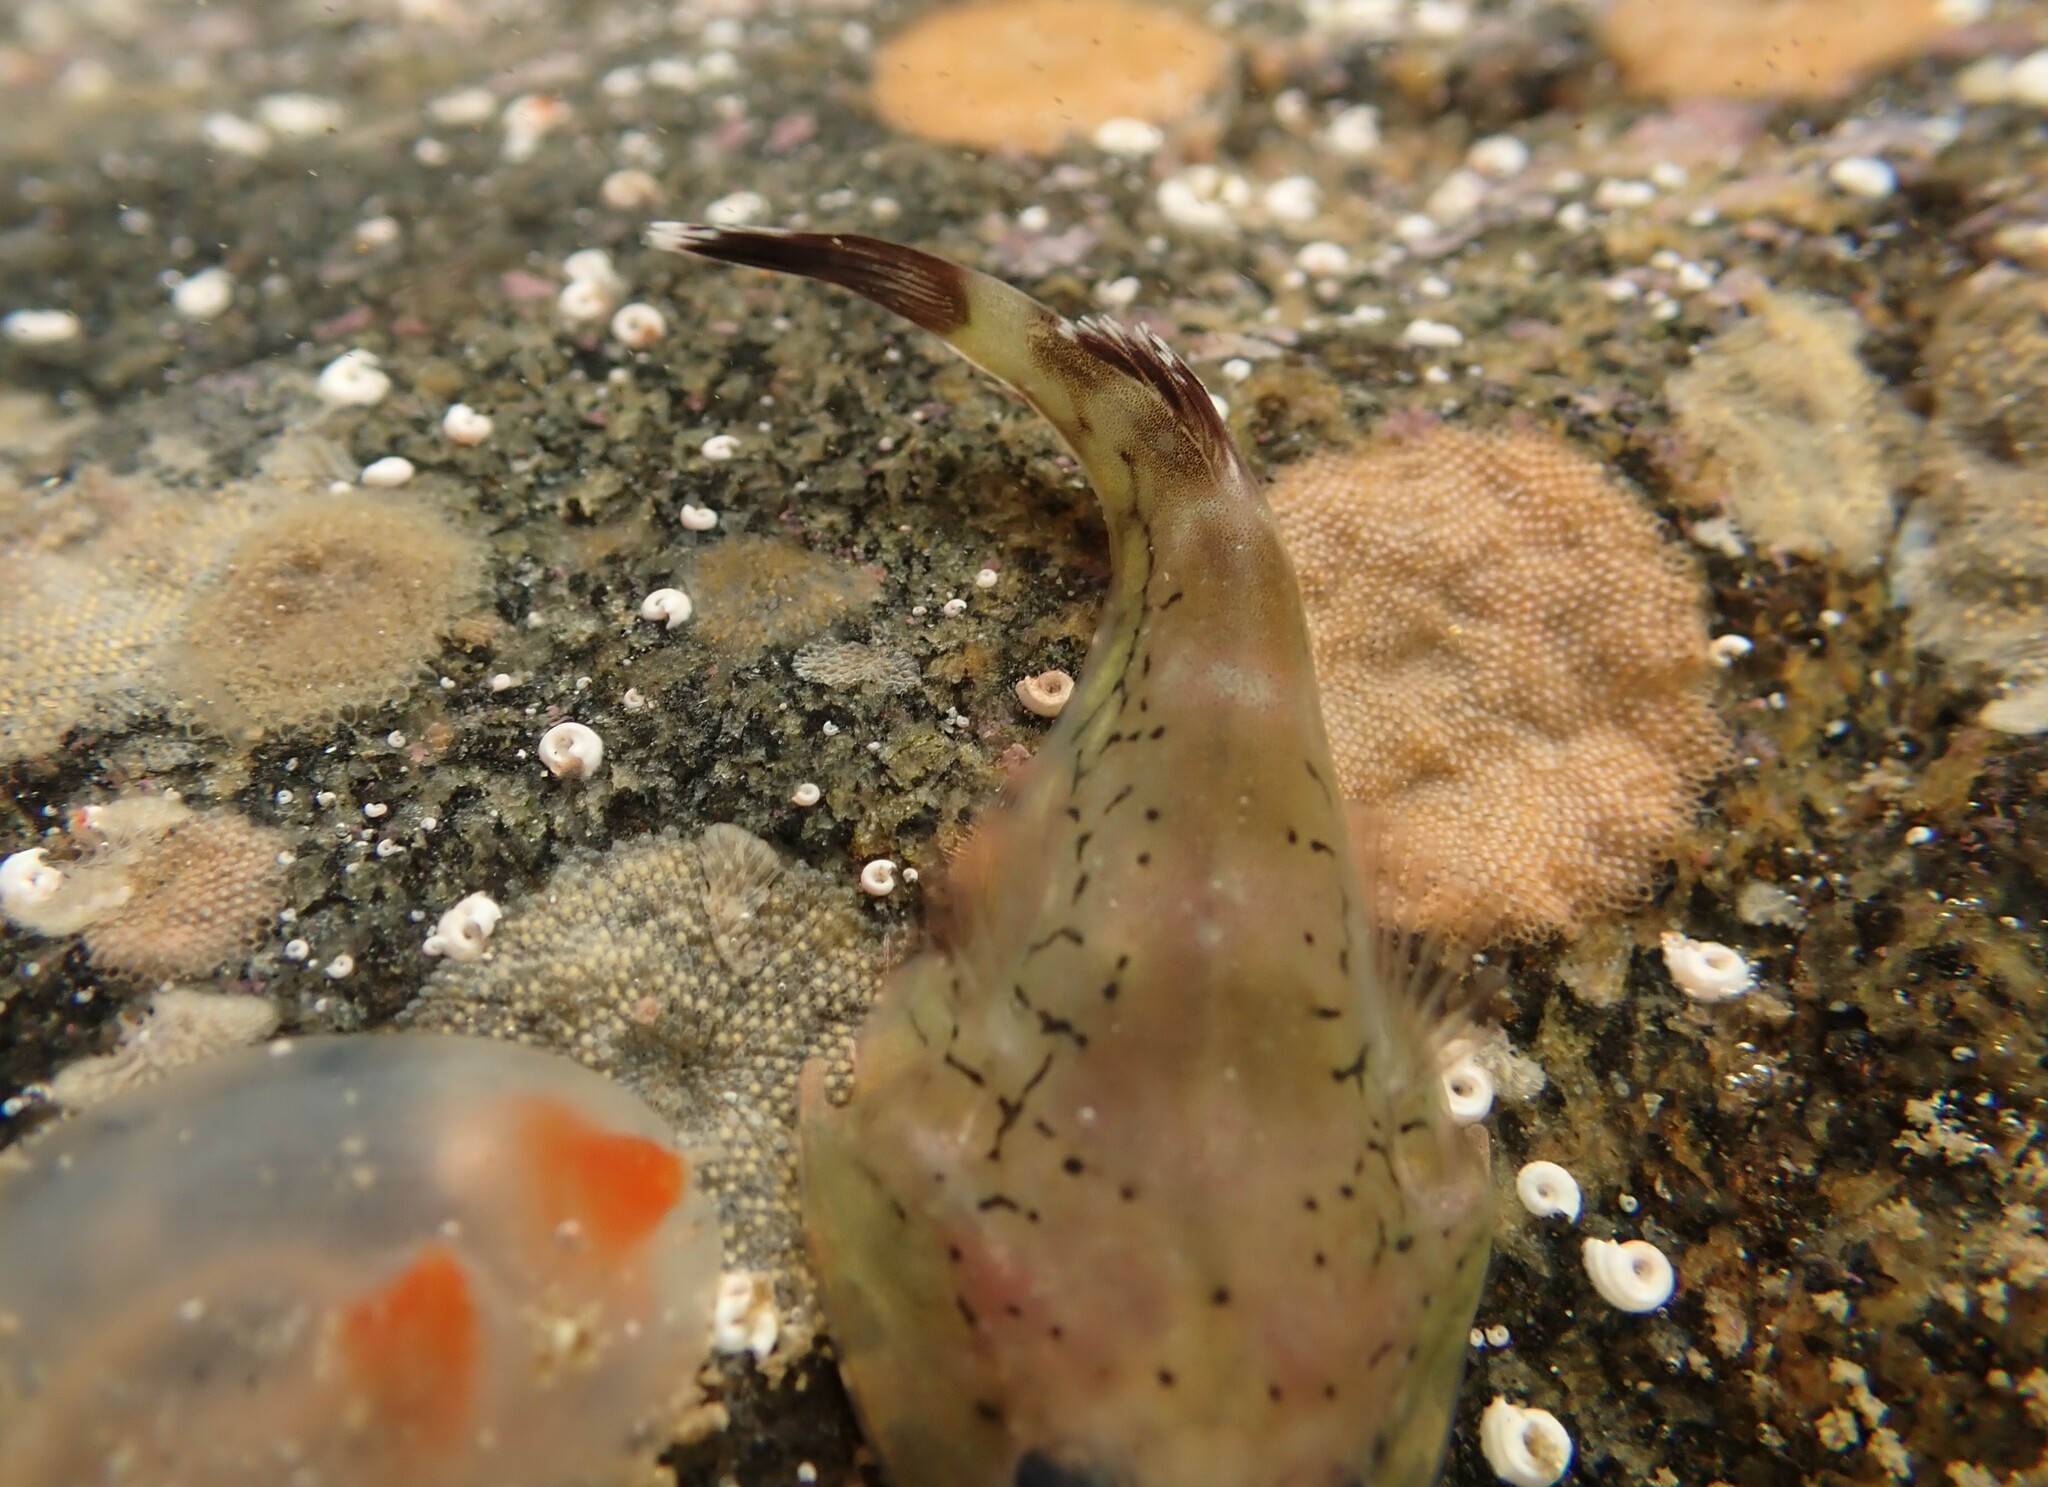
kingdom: Animalia
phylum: Chordata
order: Gobiesociformes
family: Gobiesocidae
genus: Diplocrepis
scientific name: Diplocrepis puniceus
